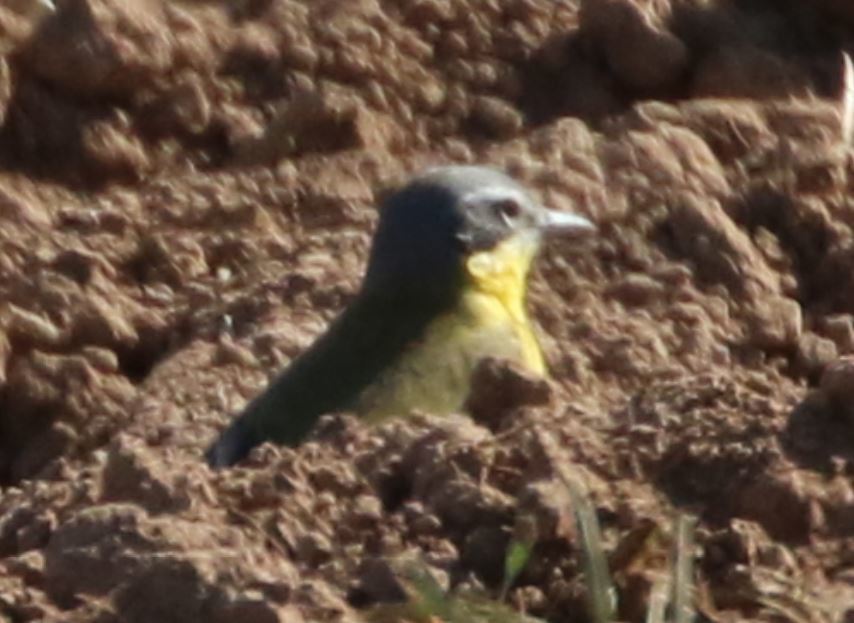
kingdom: Animalia
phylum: Chordata
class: Aves
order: Passeriformes
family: Motacillidae
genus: Motacilla
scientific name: Motacilla flava
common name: Western yellow wagtail
